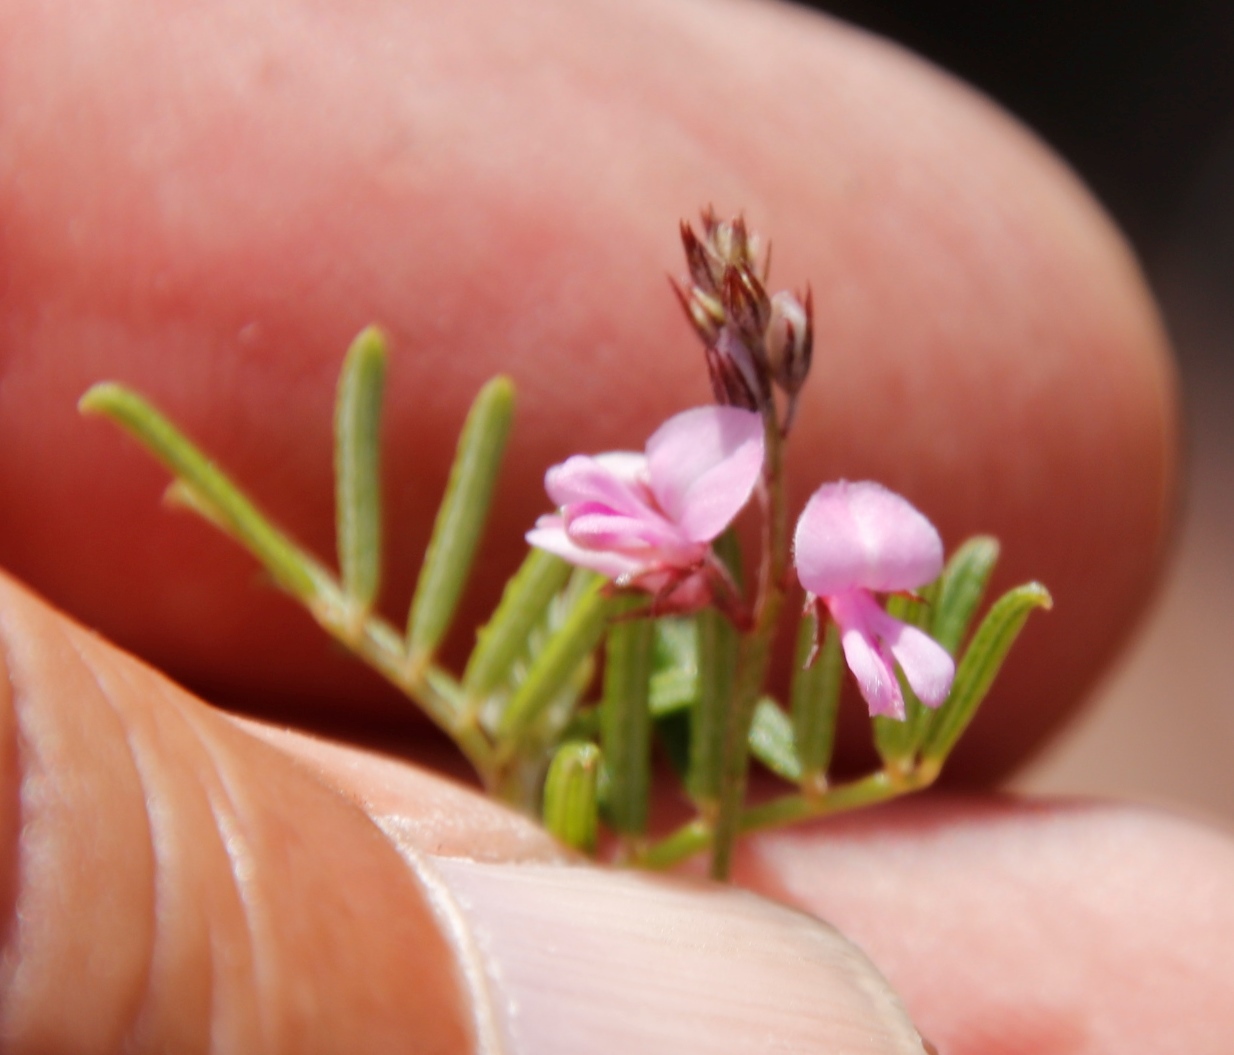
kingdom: Plantae
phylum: Tracheophyta
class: Magnoliopsida
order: Fabales
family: Fabaceae
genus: Indigofera
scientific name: Indigofera angustifolia
